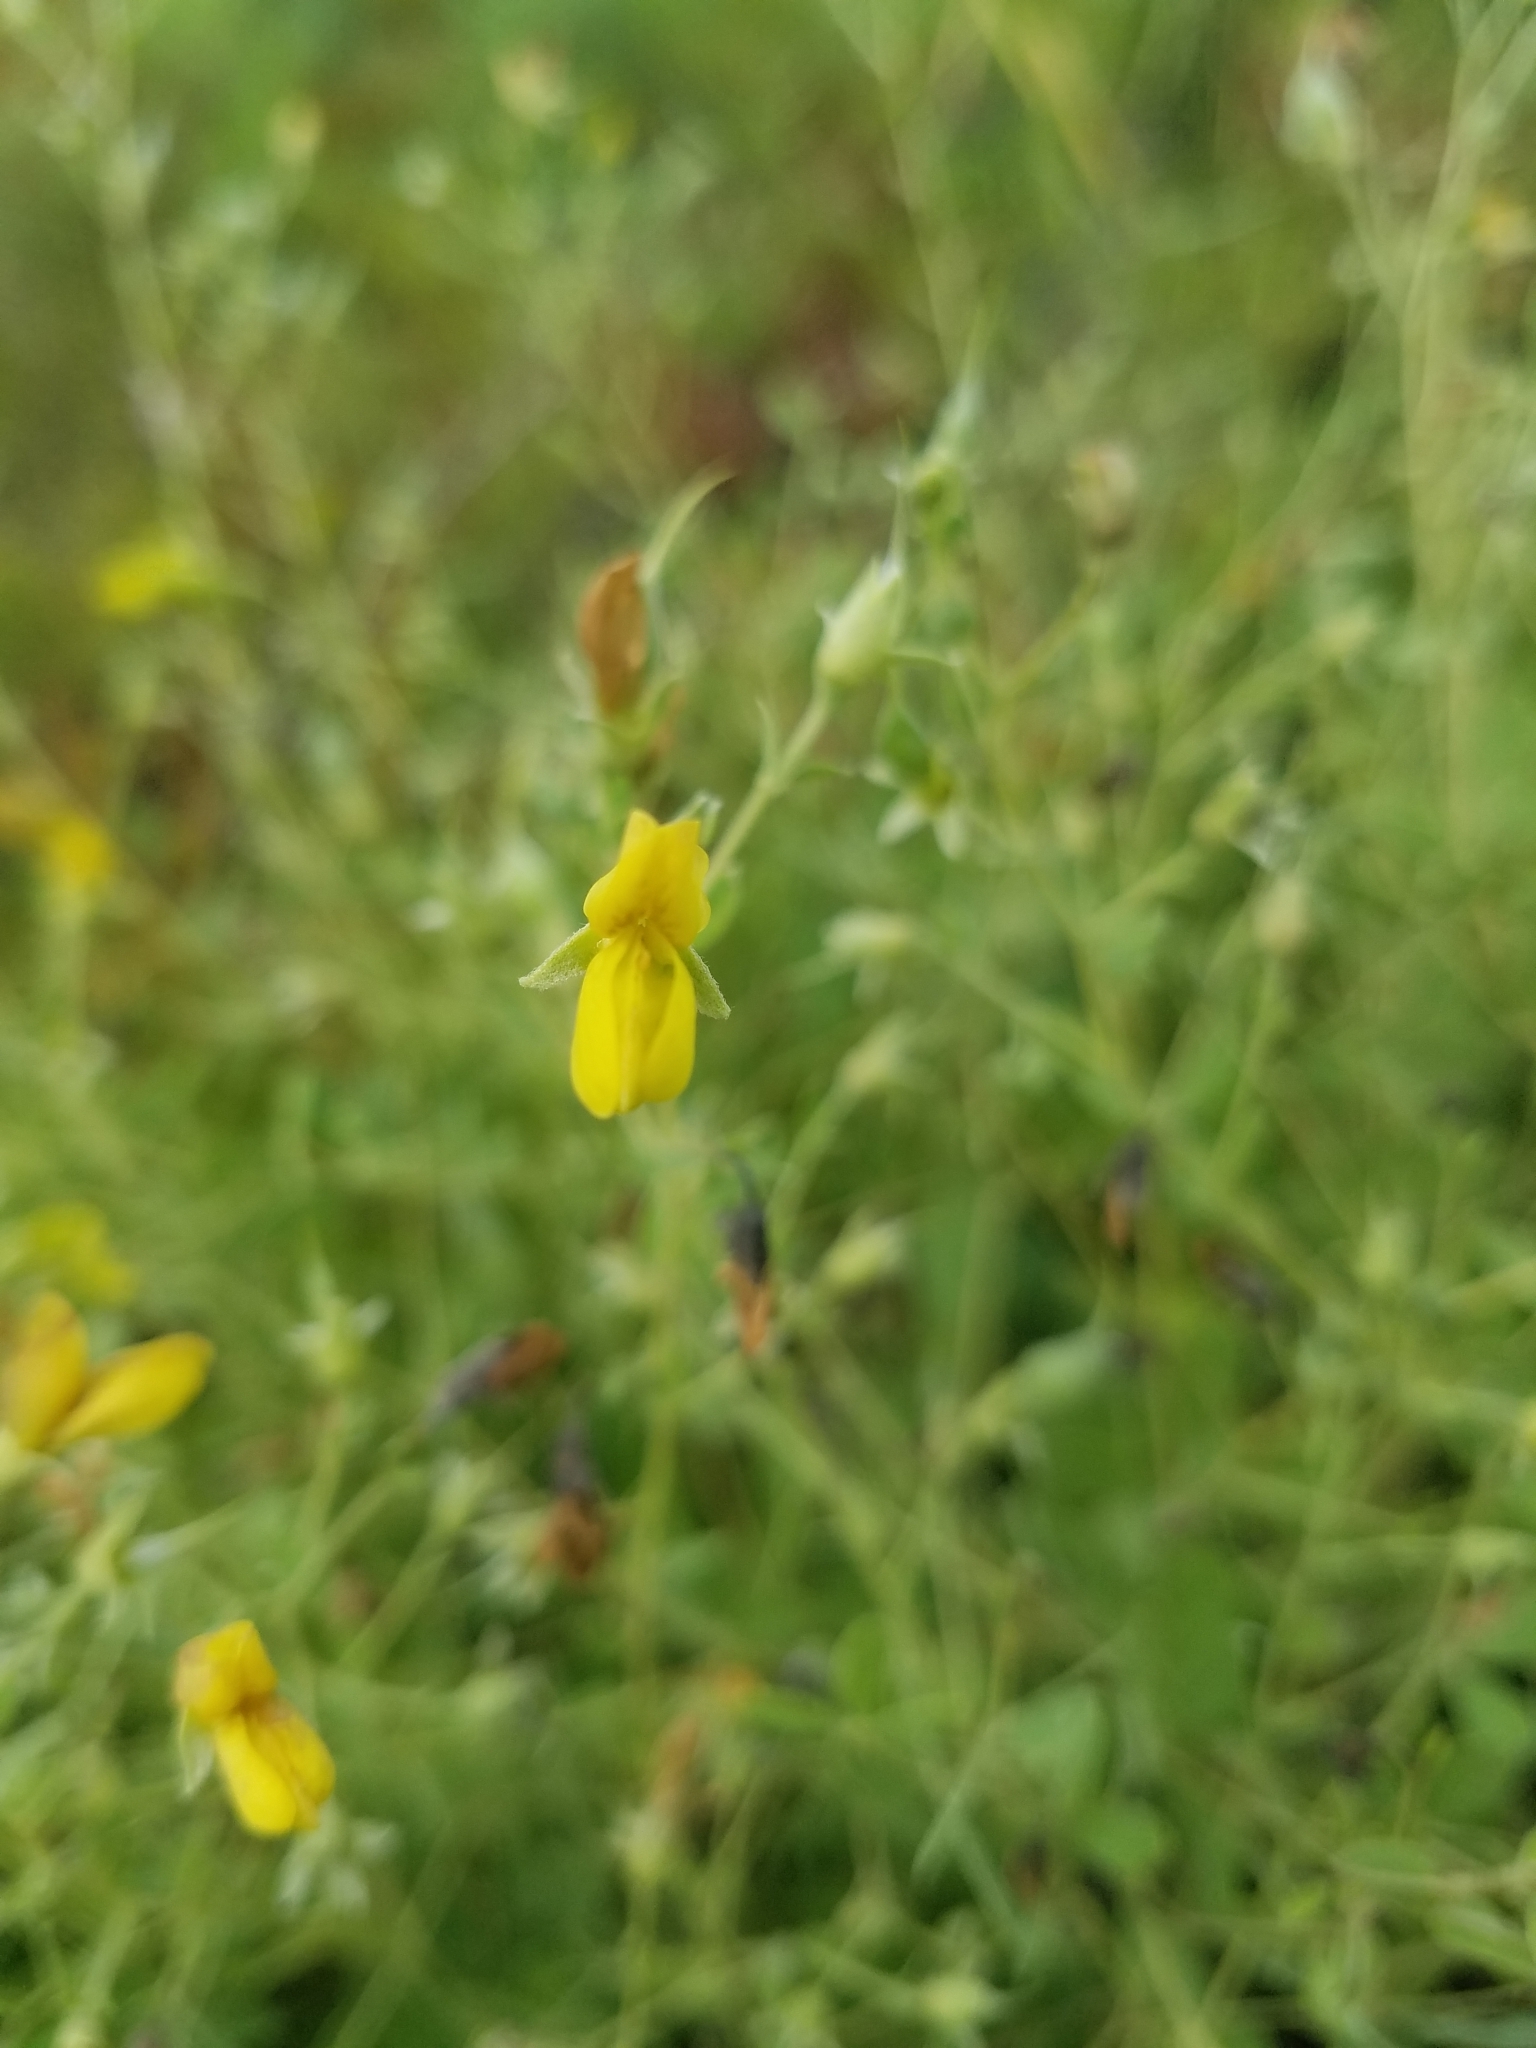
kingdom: Plantae
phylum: Tracheophyta
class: Magnoliopsida
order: Fabales
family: Fabaceae
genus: Baptisia
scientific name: Baptisia lecontei
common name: Pineland wild indigo
